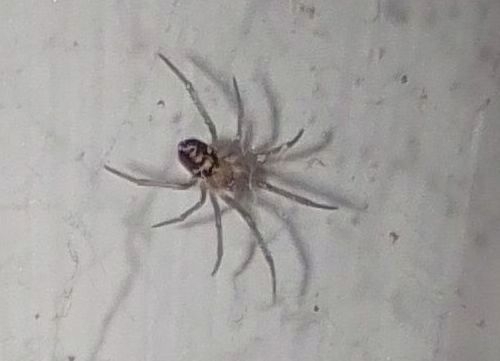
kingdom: Animalia
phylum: Arthropoda
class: Arachnida
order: Araneae
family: Theridiidae
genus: Steatoda
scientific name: Steatoda grossa
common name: False black widow
